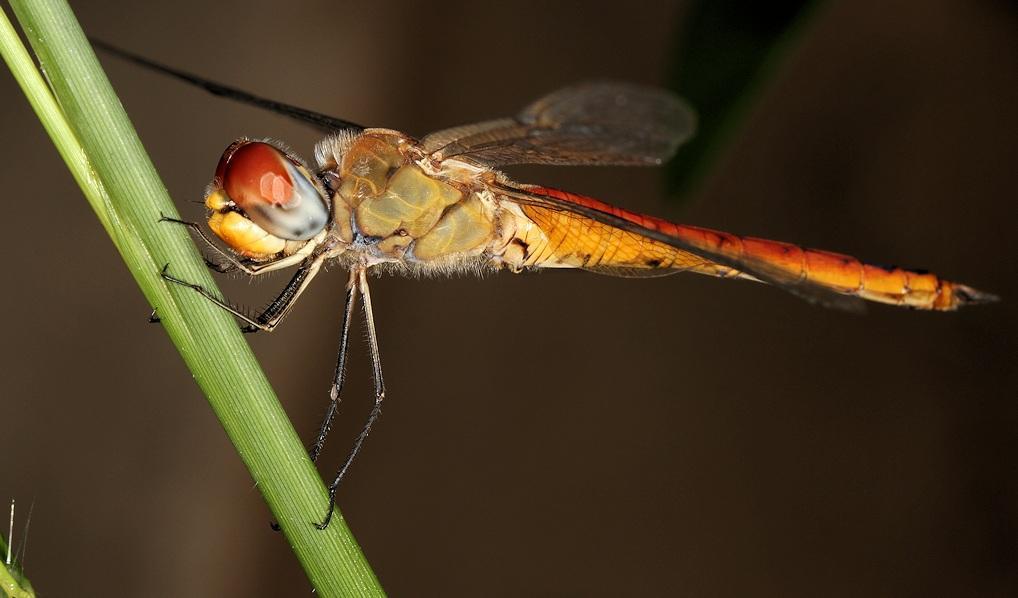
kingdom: Animalia
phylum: Arthropoda
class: Insecta
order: Odonata
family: Libellulidae
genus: Pantala
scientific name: Pantala flavescens
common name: Wandering glider
